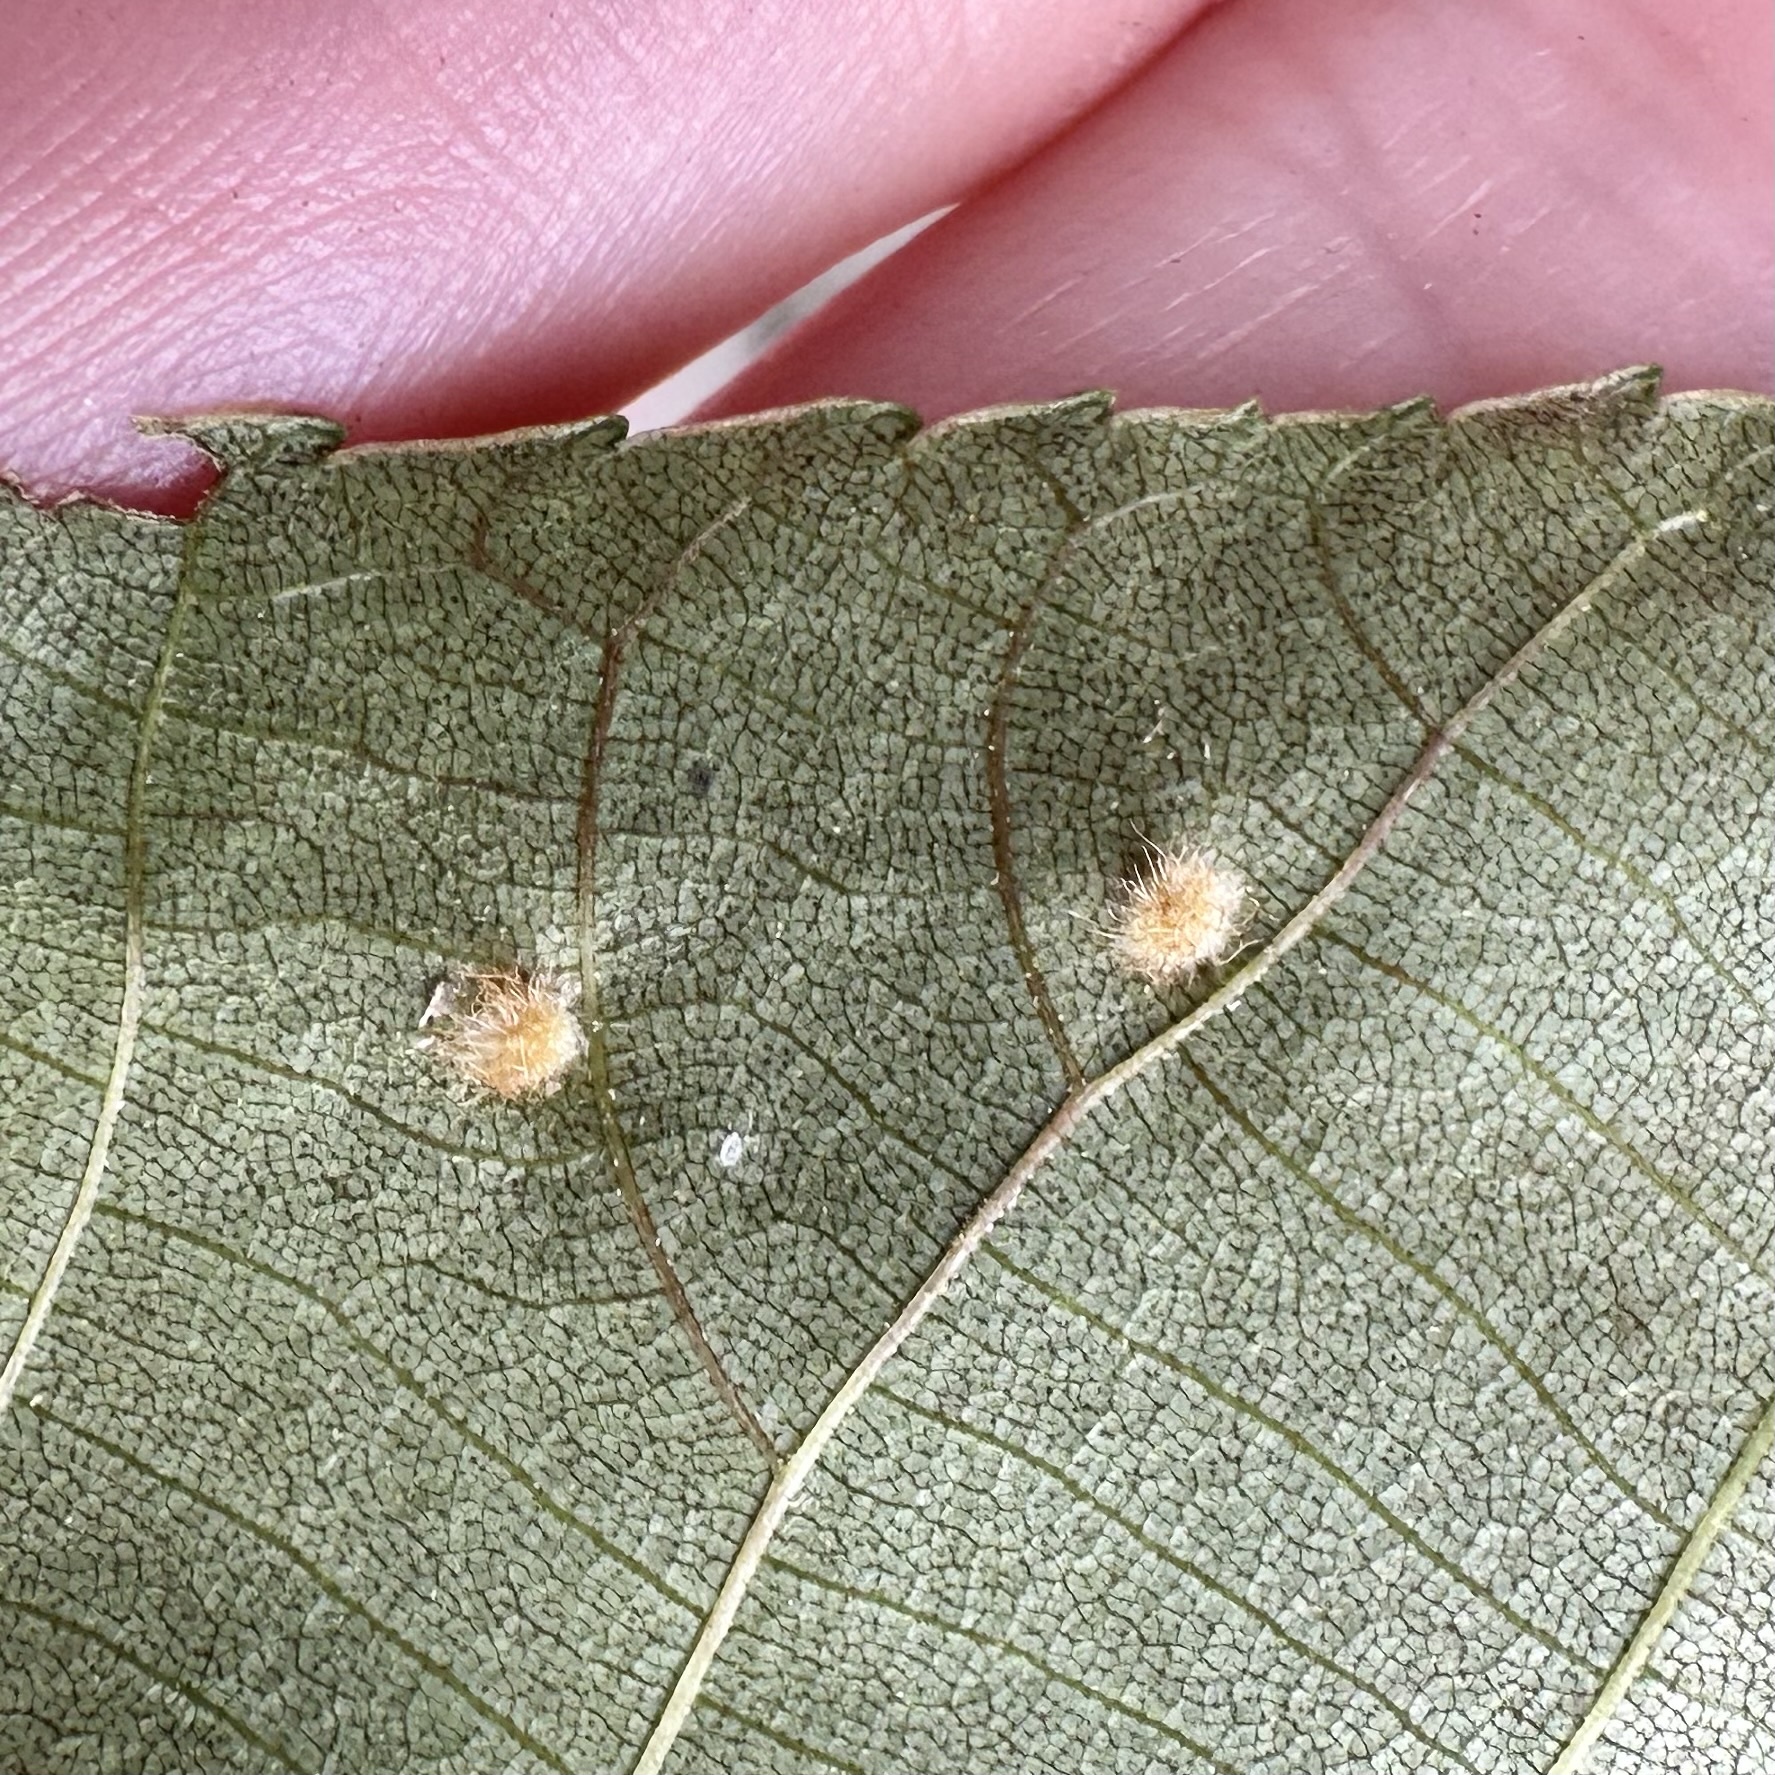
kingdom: Animalia
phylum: Arthropoda
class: Insecta
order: Diptera
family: Cecidomyiidae
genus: Caryomyia
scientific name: Caryomyia hirtidolium
